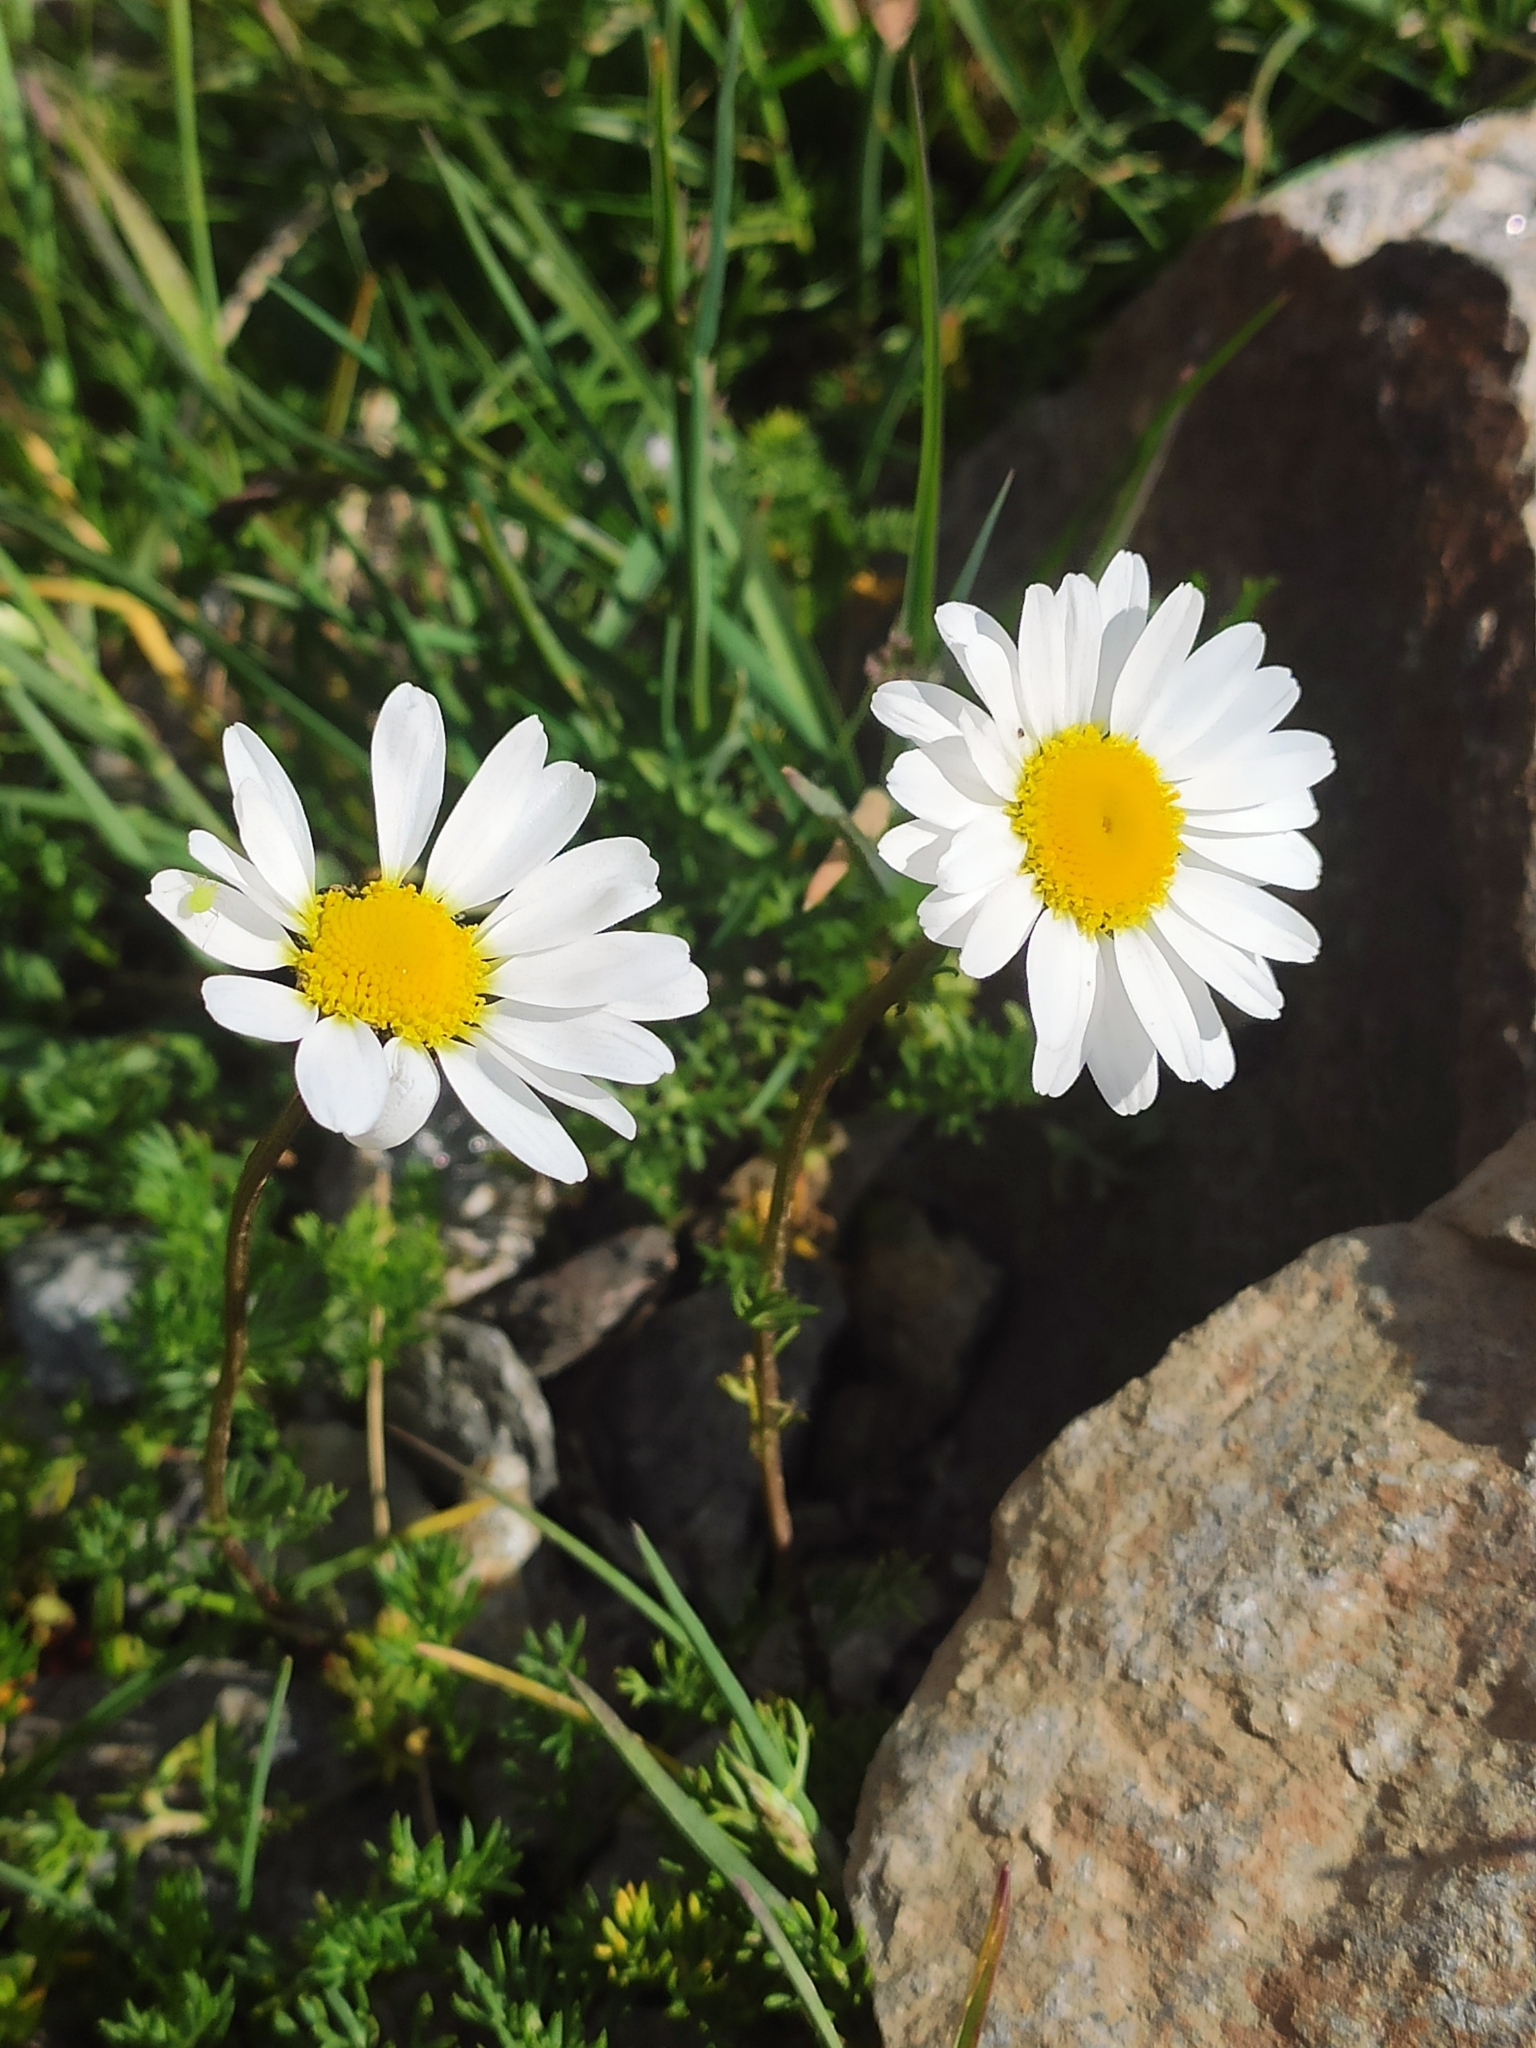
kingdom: Plantae
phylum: Tracheophyta
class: Magnoliopsida
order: Asterales
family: Asteraceae
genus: Tripleurospermum
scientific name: Tripleurospermum caucasicum
